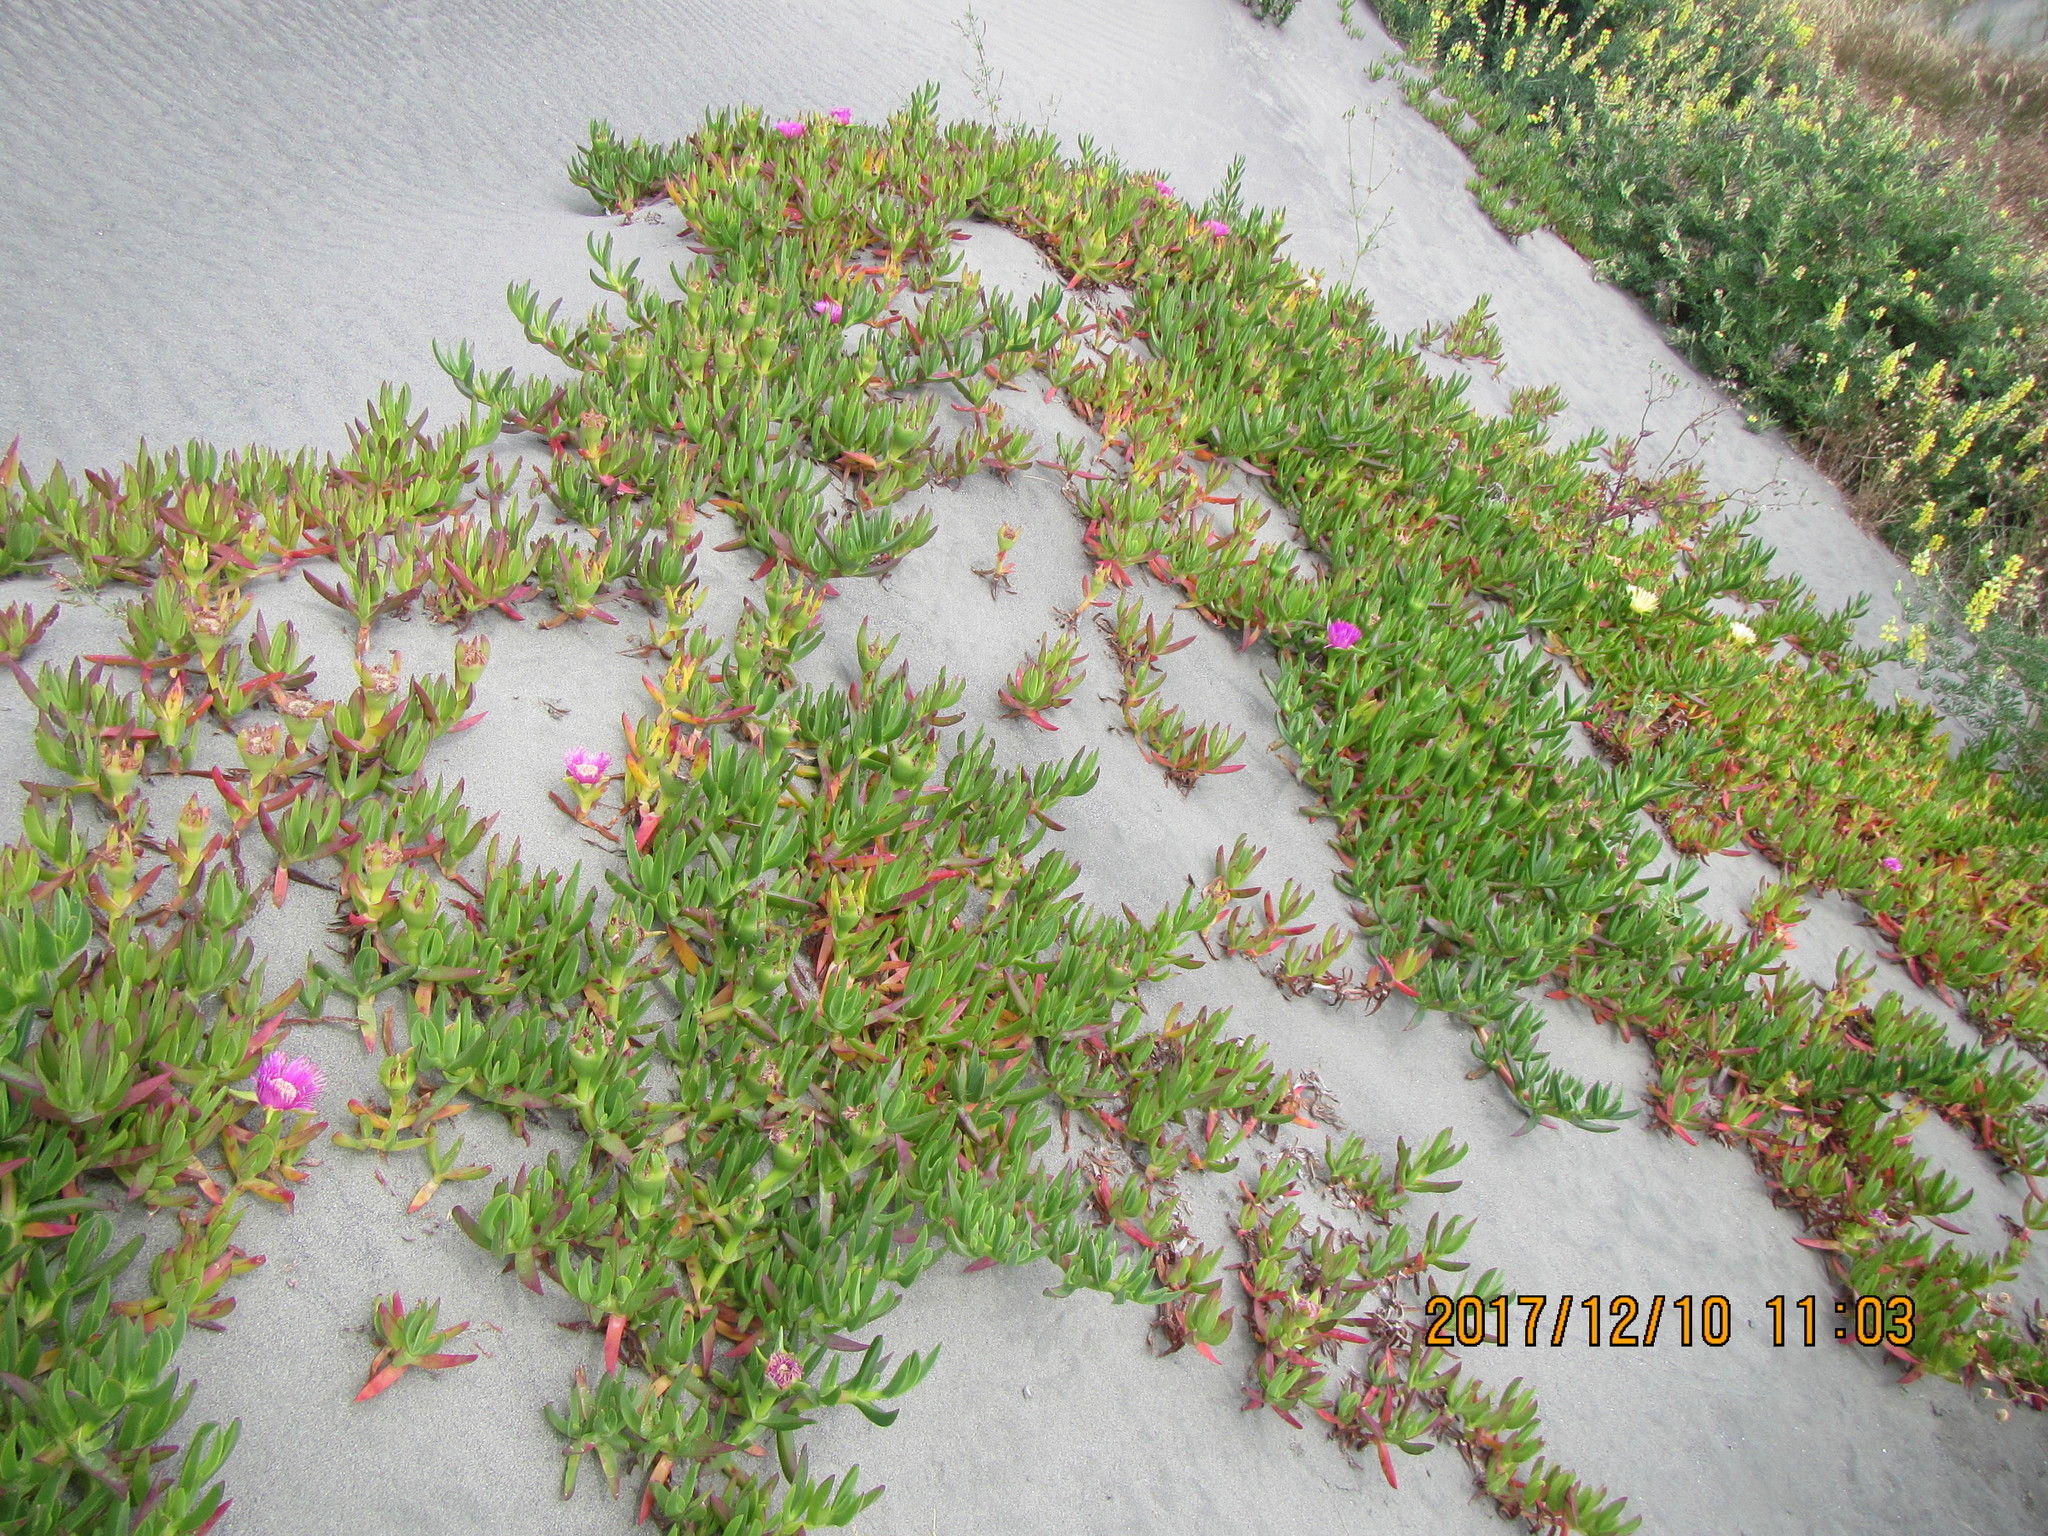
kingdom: Plantae
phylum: Tracheophyta
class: Magnoliopsida
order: Caryophyllales
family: Aizoaceae
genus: Carpobrotus
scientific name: Carpobrotus chilensis
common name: Sea fig
